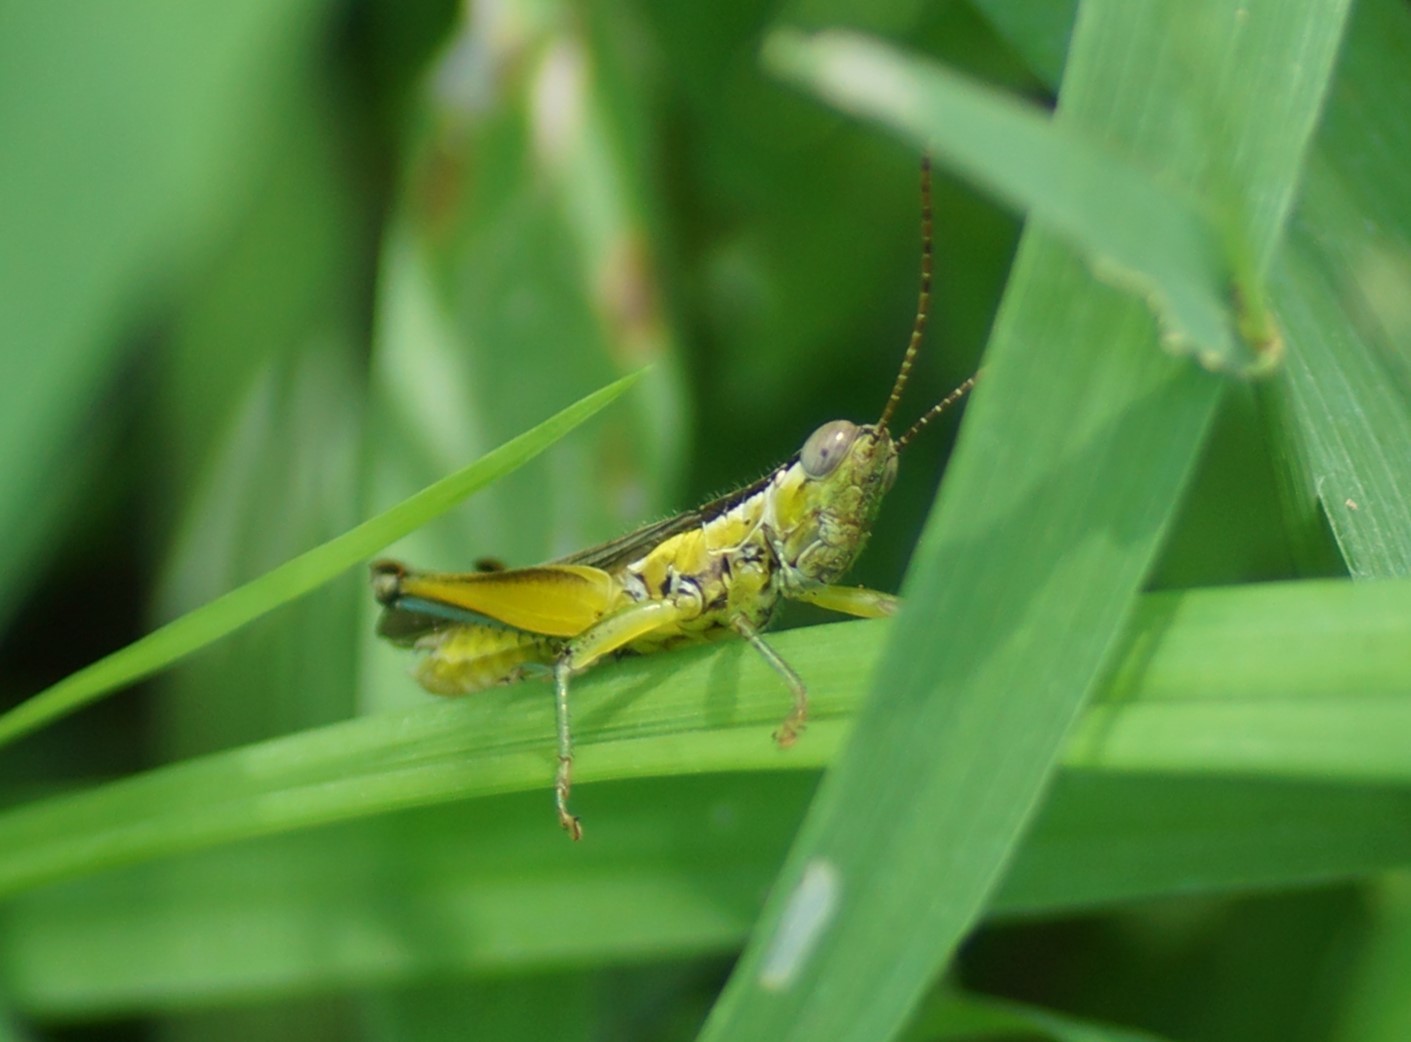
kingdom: Animalia
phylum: Arthropoda
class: Insecta
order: Orthoptera
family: Acrididae
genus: Bermius
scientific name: Bermius curvicercus
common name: Sorghum bermius
